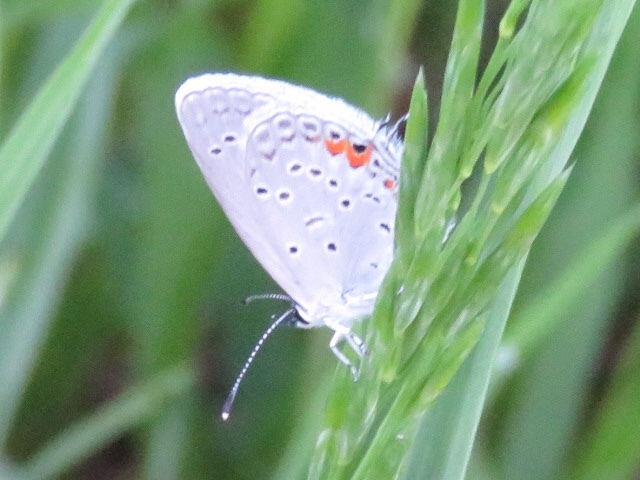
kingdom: Animalia
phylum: Arthropoda
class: Insecta
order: Lepidoptera
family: Lycaenidae
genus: Elkalyce
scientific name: Elkalyce comyntas
